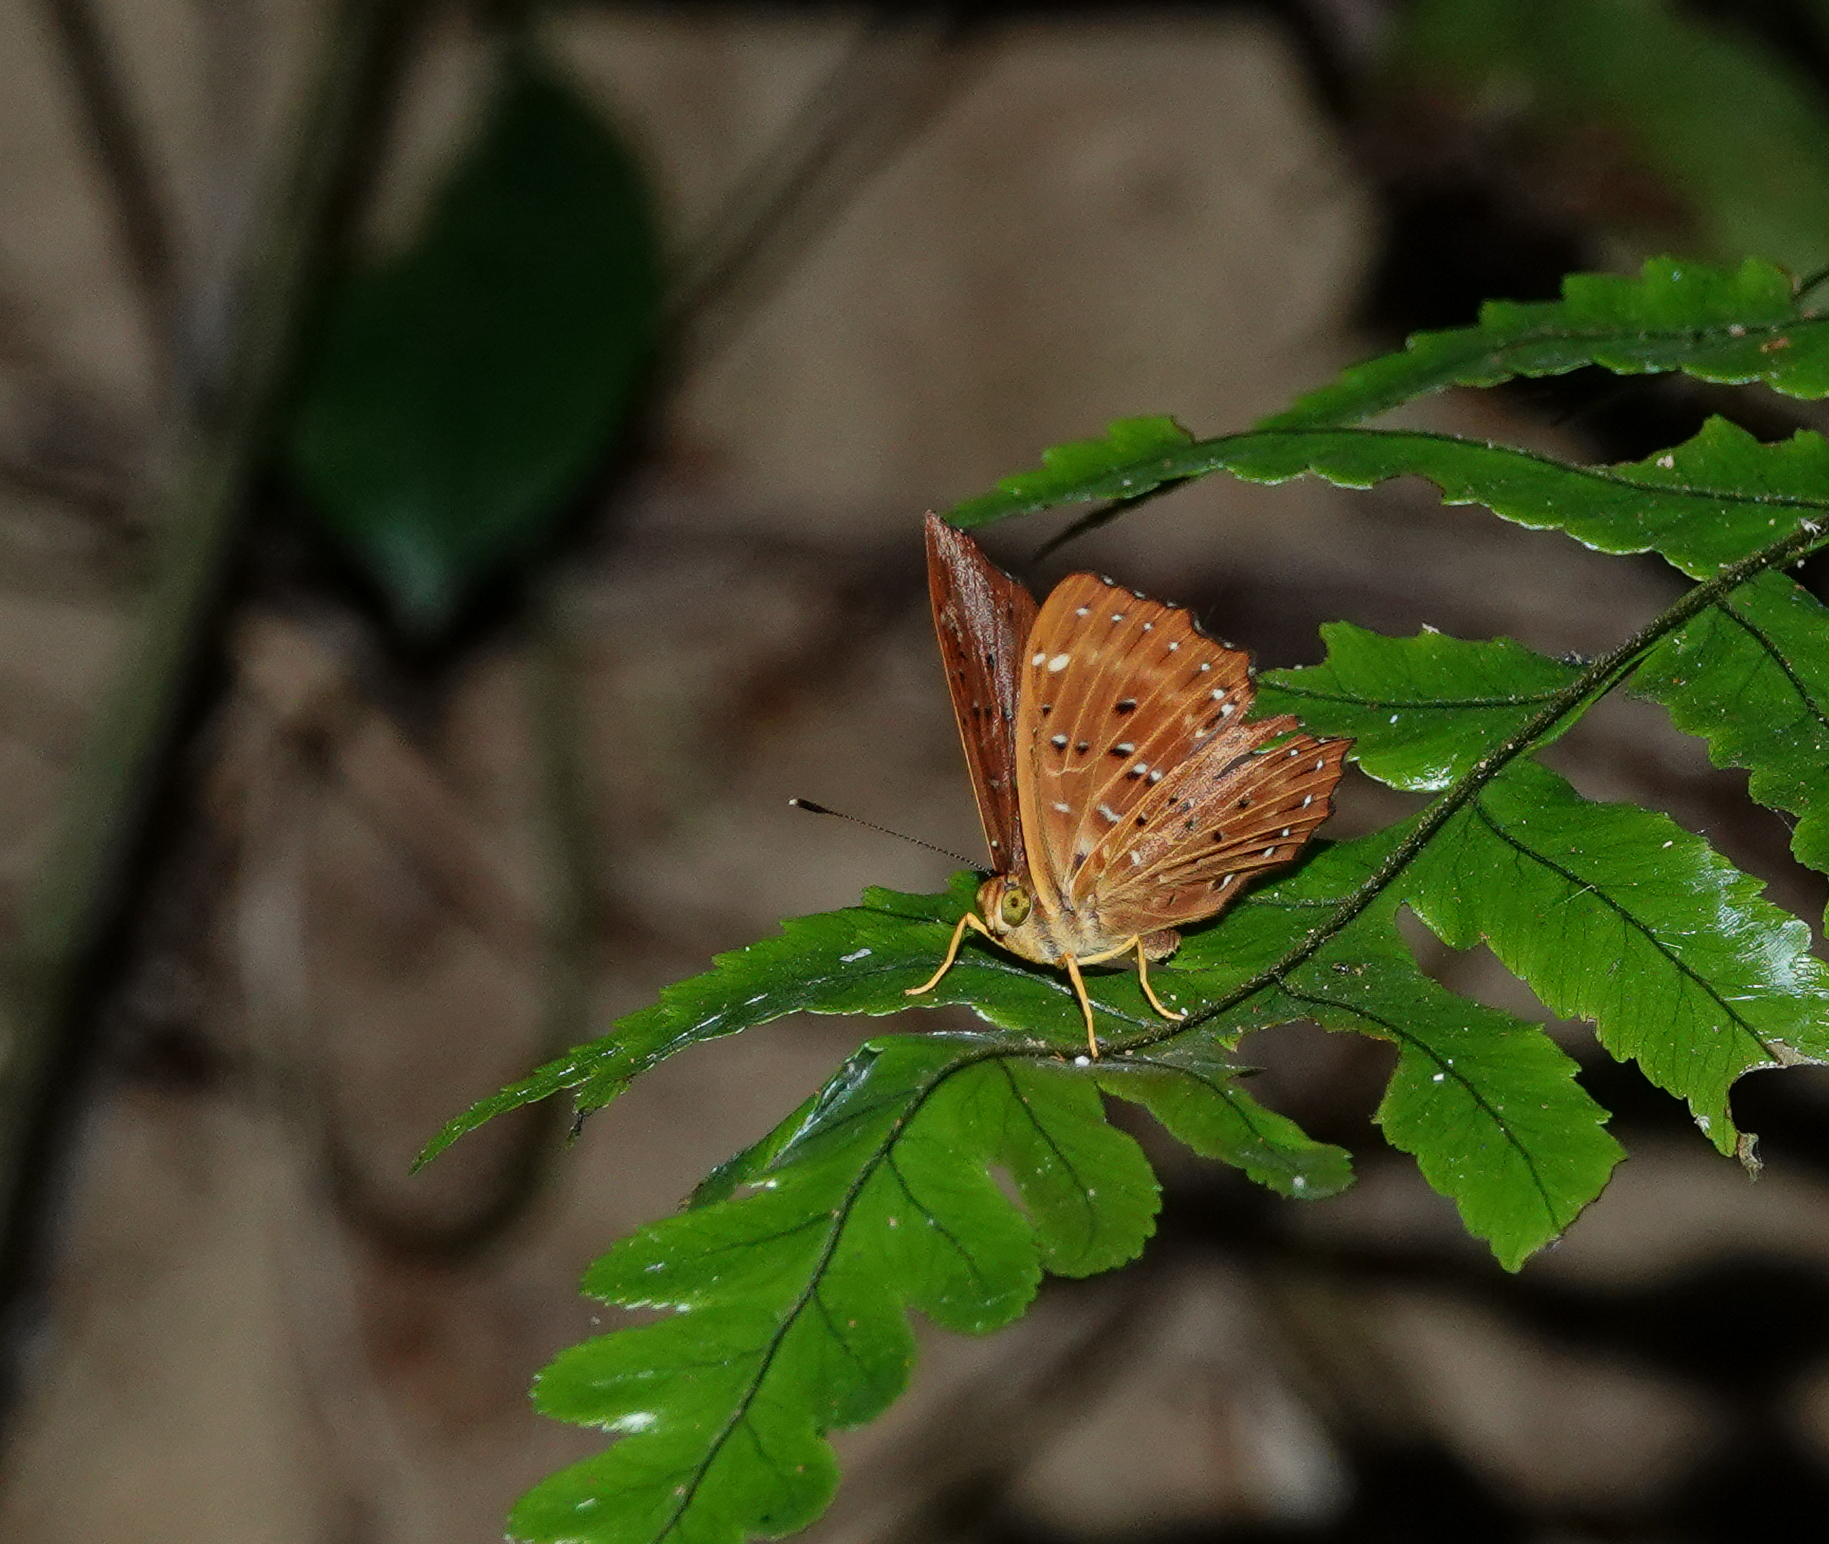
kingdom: Animalia
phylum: Arthropoda
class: Insecta
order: Lepidoptera
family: Riodinidae
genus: Zemeros
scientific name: Zemeros flegyas
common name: Punchinello
